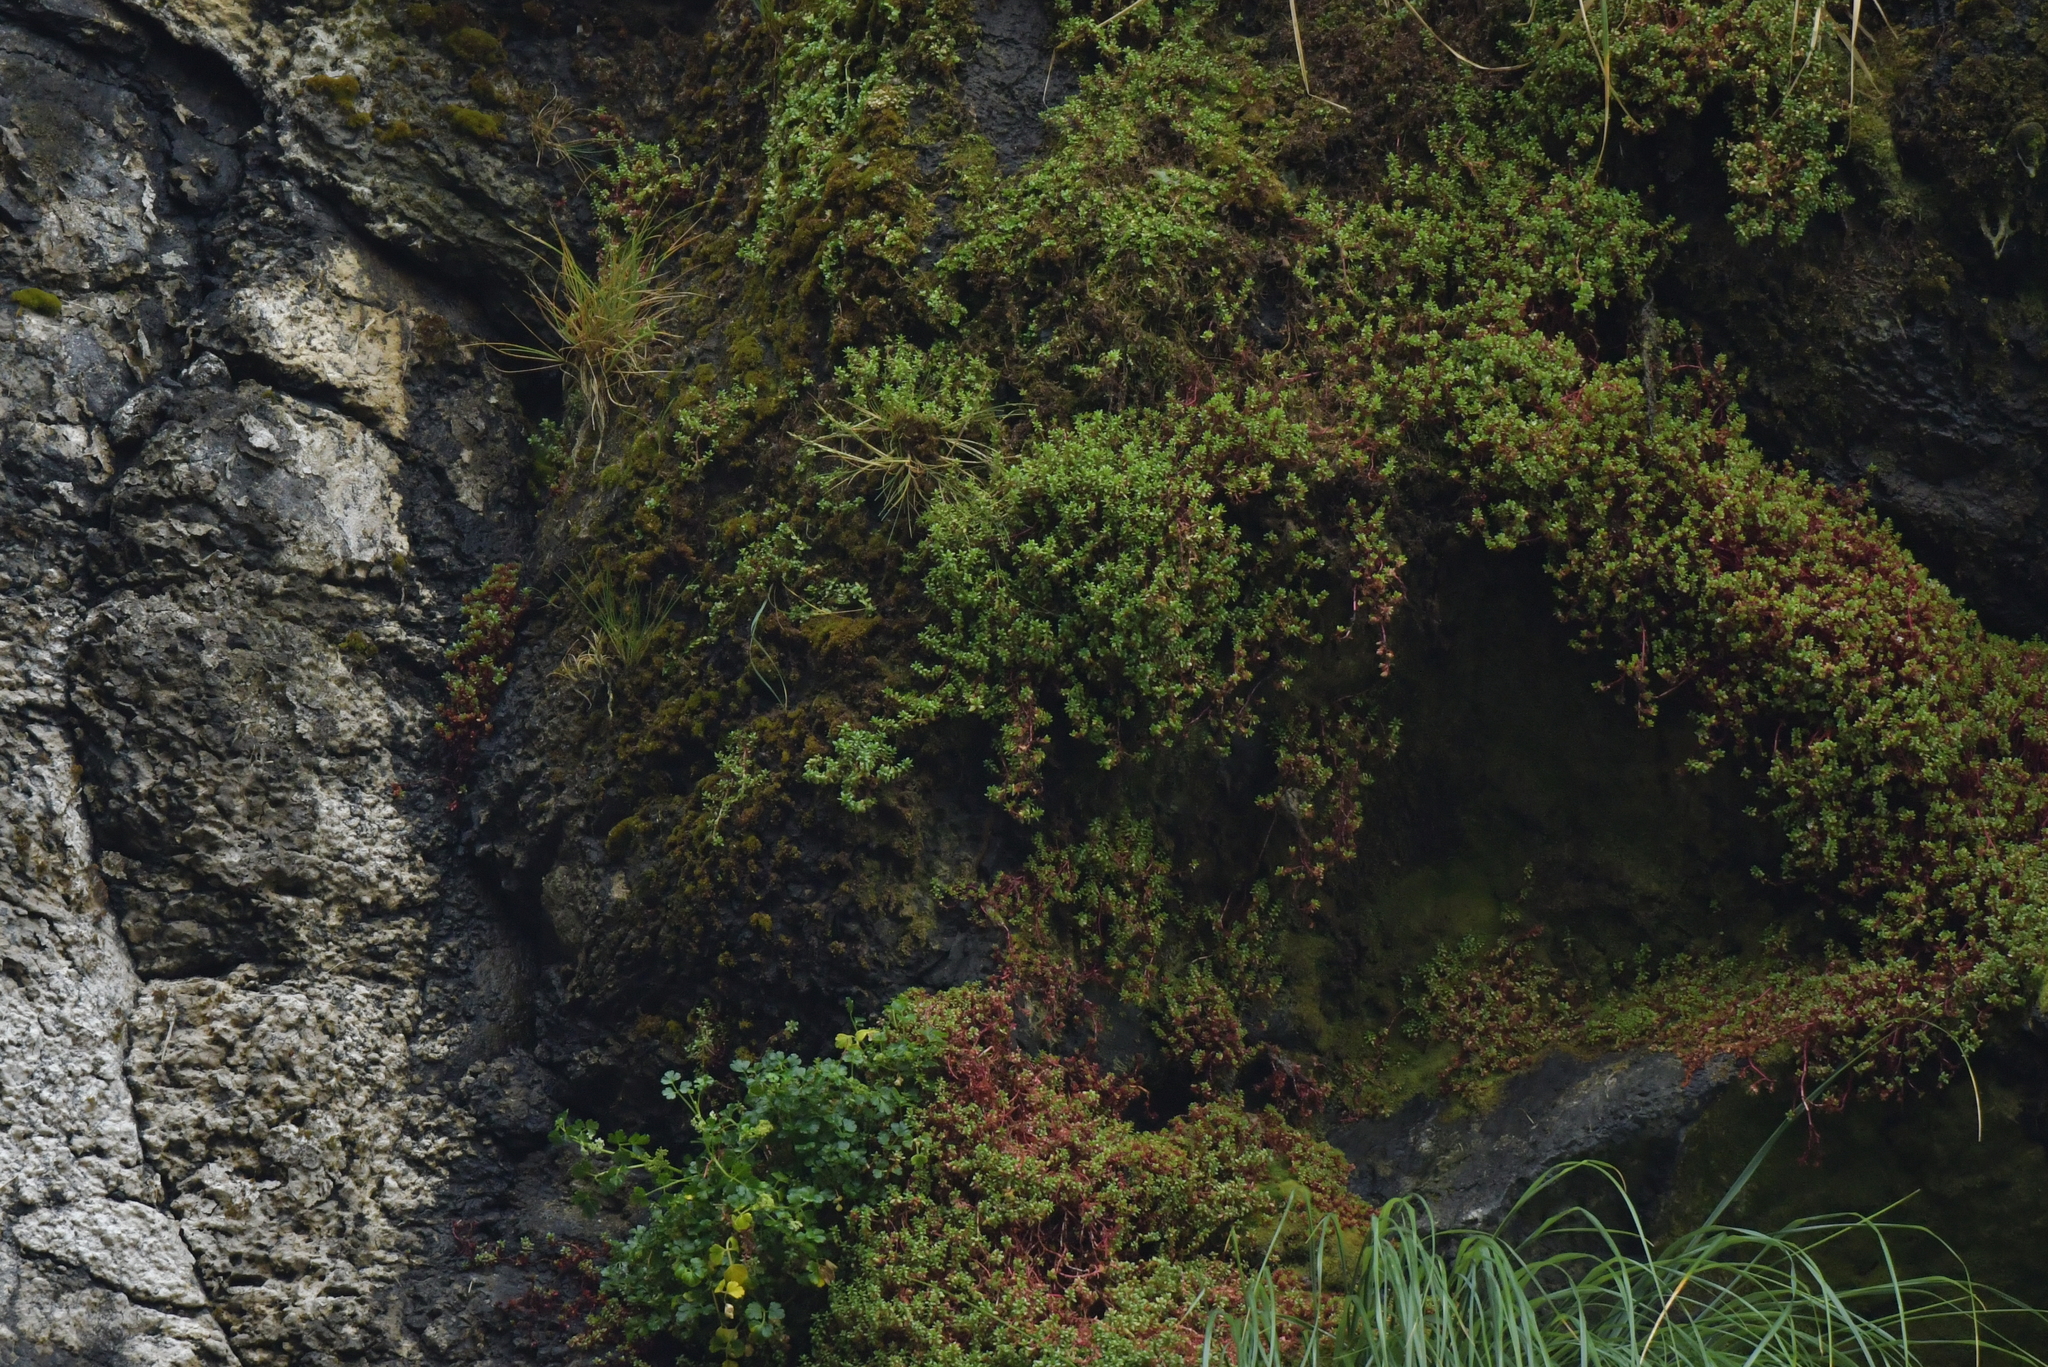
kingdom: Plantae
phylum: Tracheophyta
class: Magnoliopsida
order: Saxifragales
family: Crassulaceae
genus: Crassula
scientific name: Crassula moschata
